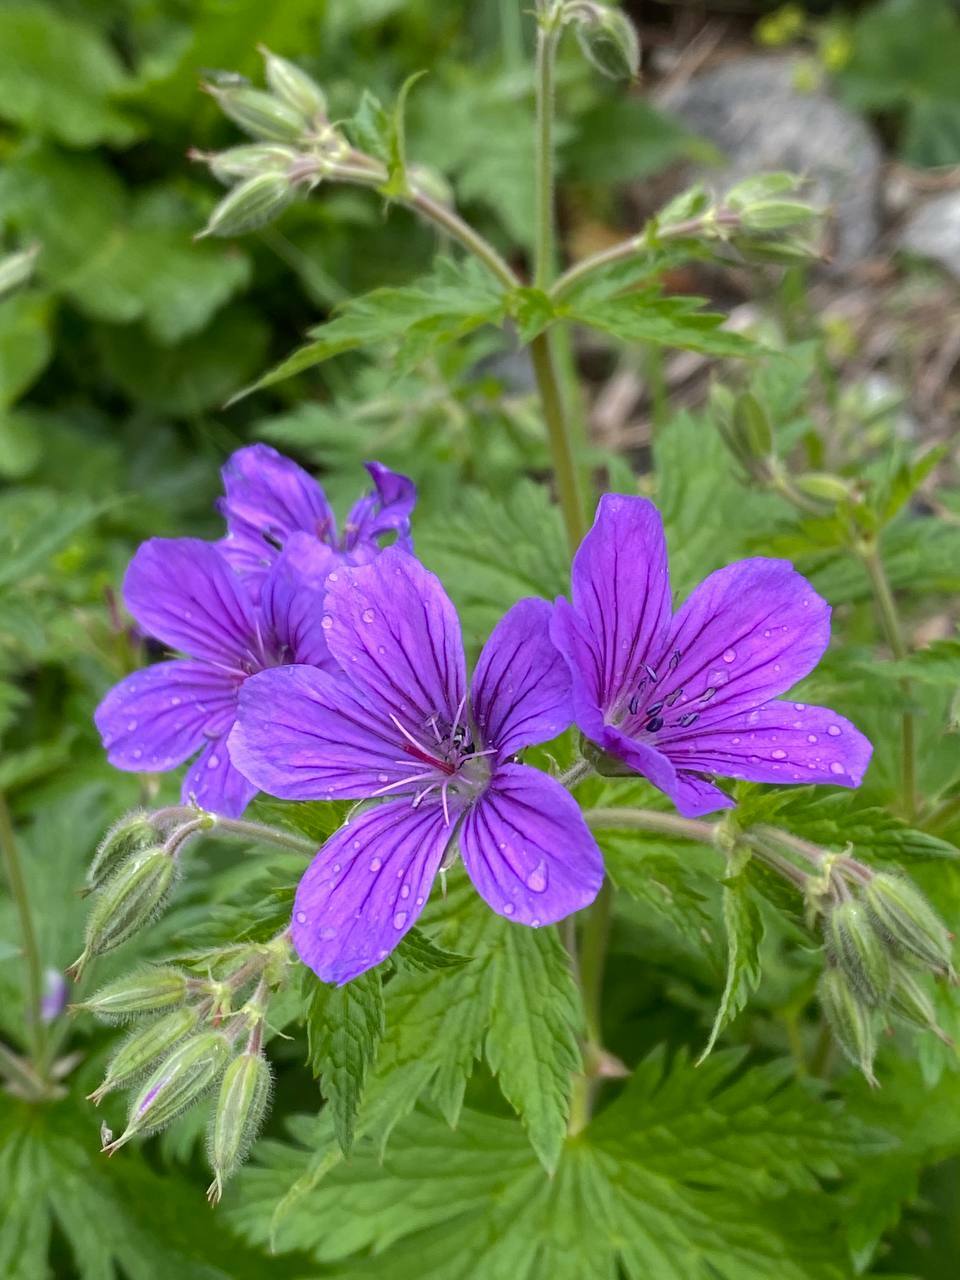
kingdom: Plantae
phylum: Tracheophyta
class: Magnoliopsida
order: Geraniales
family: Geraniaceae
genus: Geranium
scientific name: Geranium sylvaticum
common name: Wood crane's-bill
